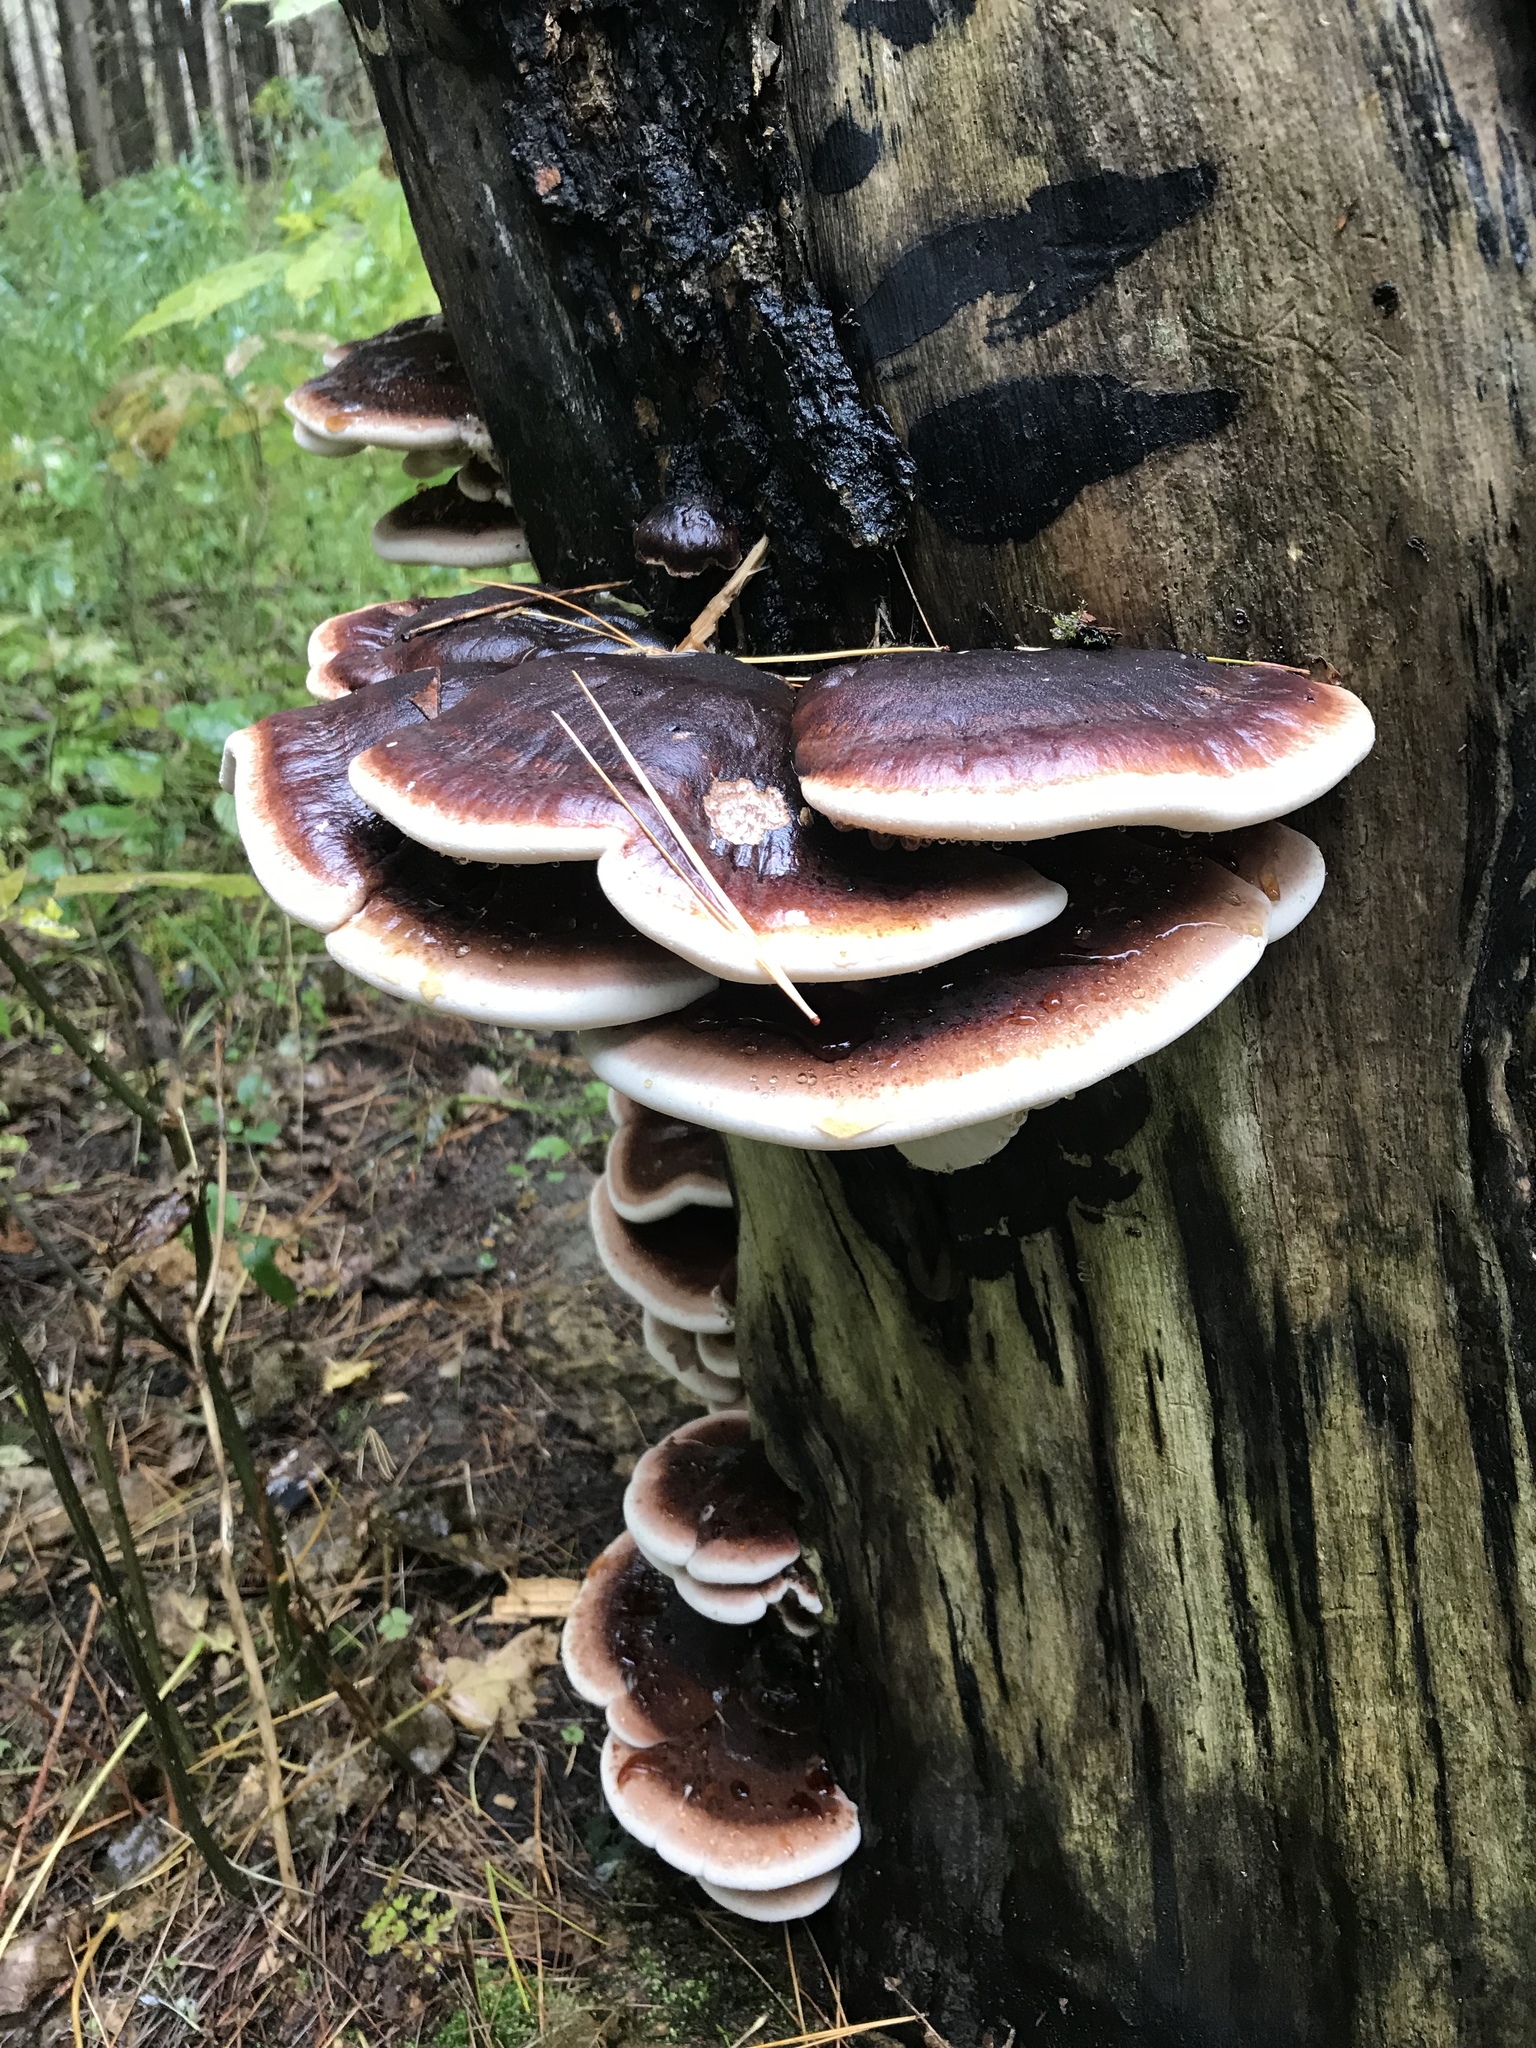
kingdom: Fungi
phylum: Basidiomycota
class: Agaricomycetes
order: Polyporales
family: Ischnodermataceae
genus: Ischnoderma
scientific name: Ischnoderma resinosum
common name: Resinous polypore
